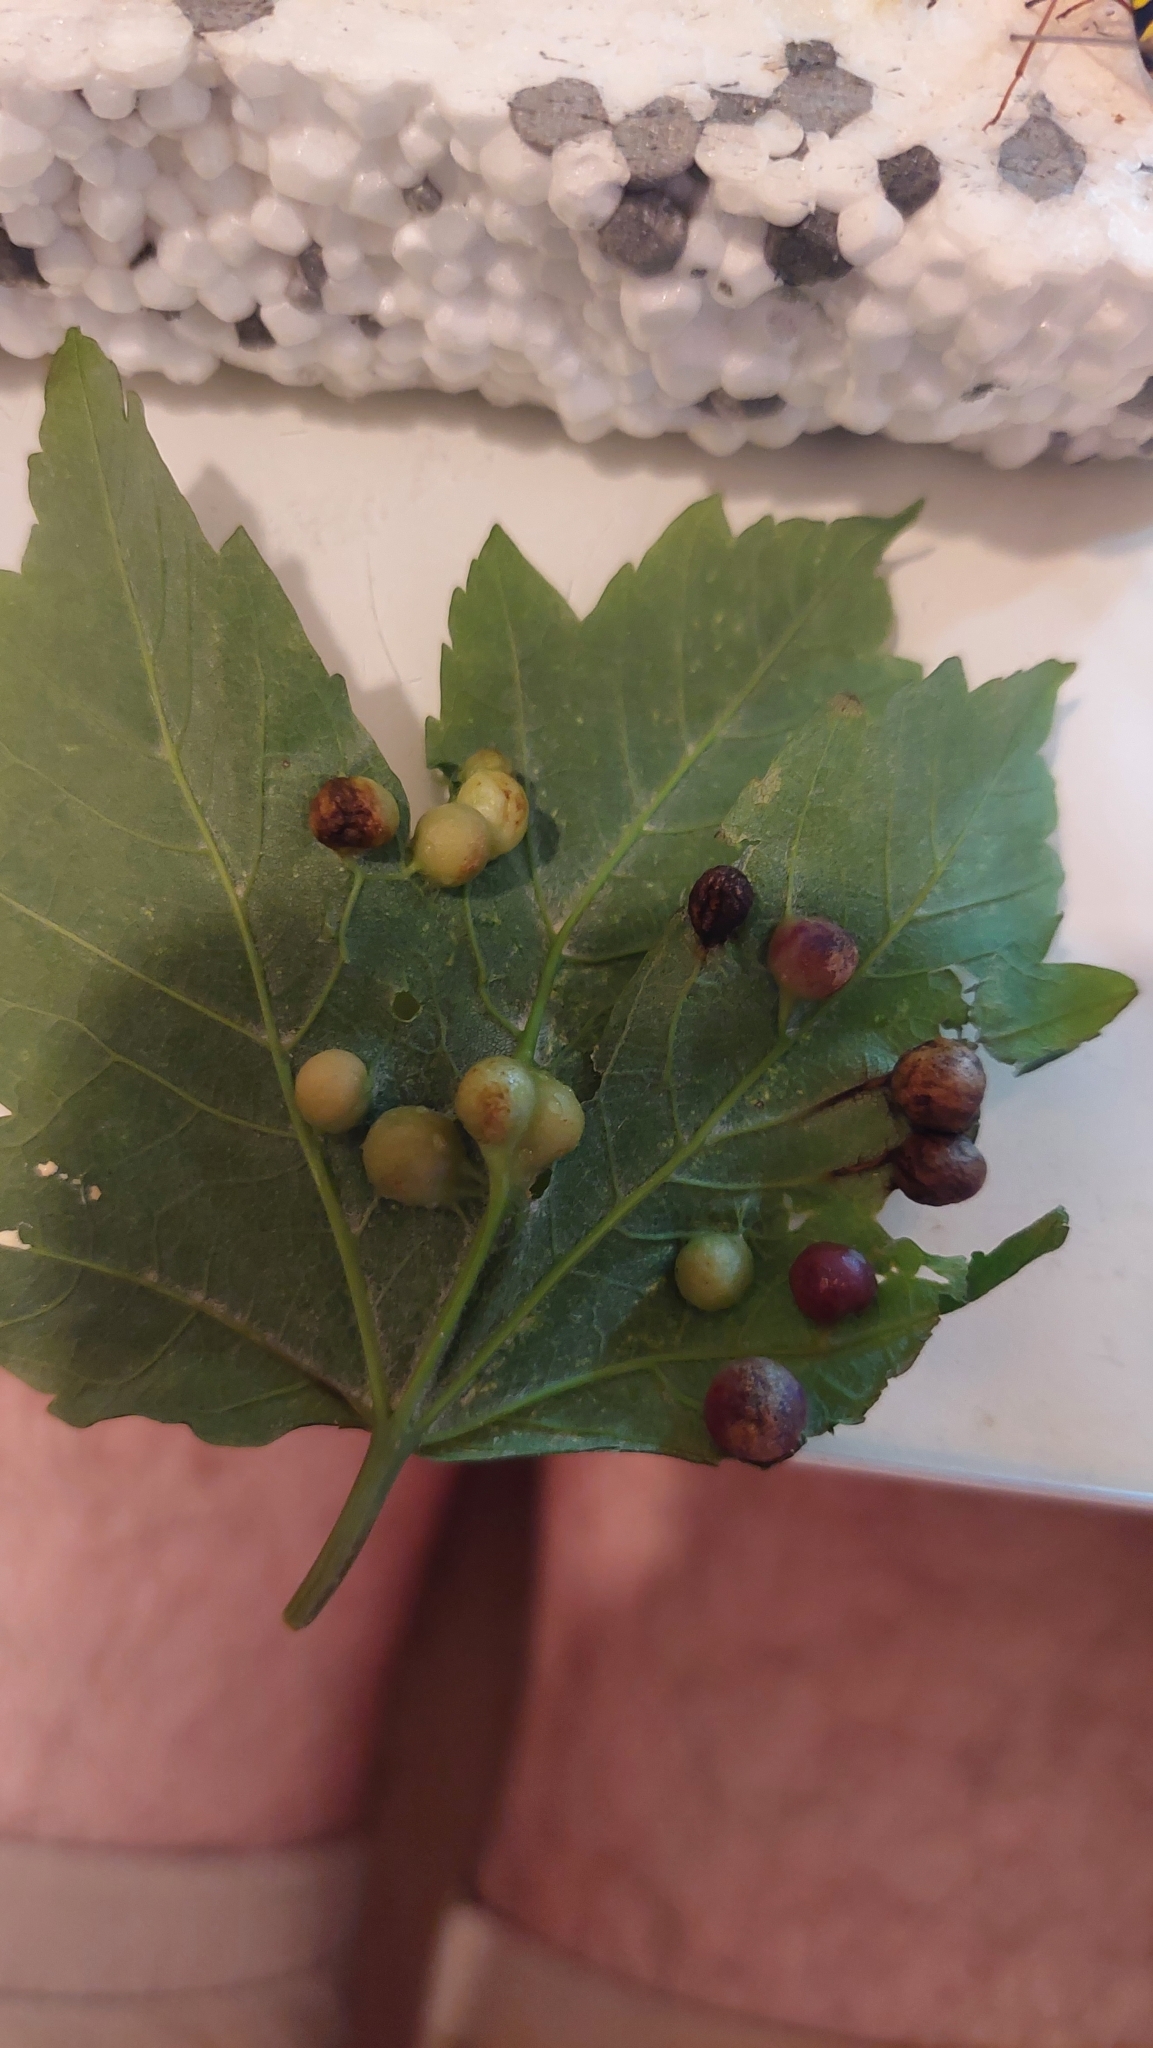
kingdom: Animalia
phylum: Arthropoda
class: Insecta
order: Hymenoptera
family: Cynipidae
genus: Pediaspis
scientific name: Pediaspis aceris
